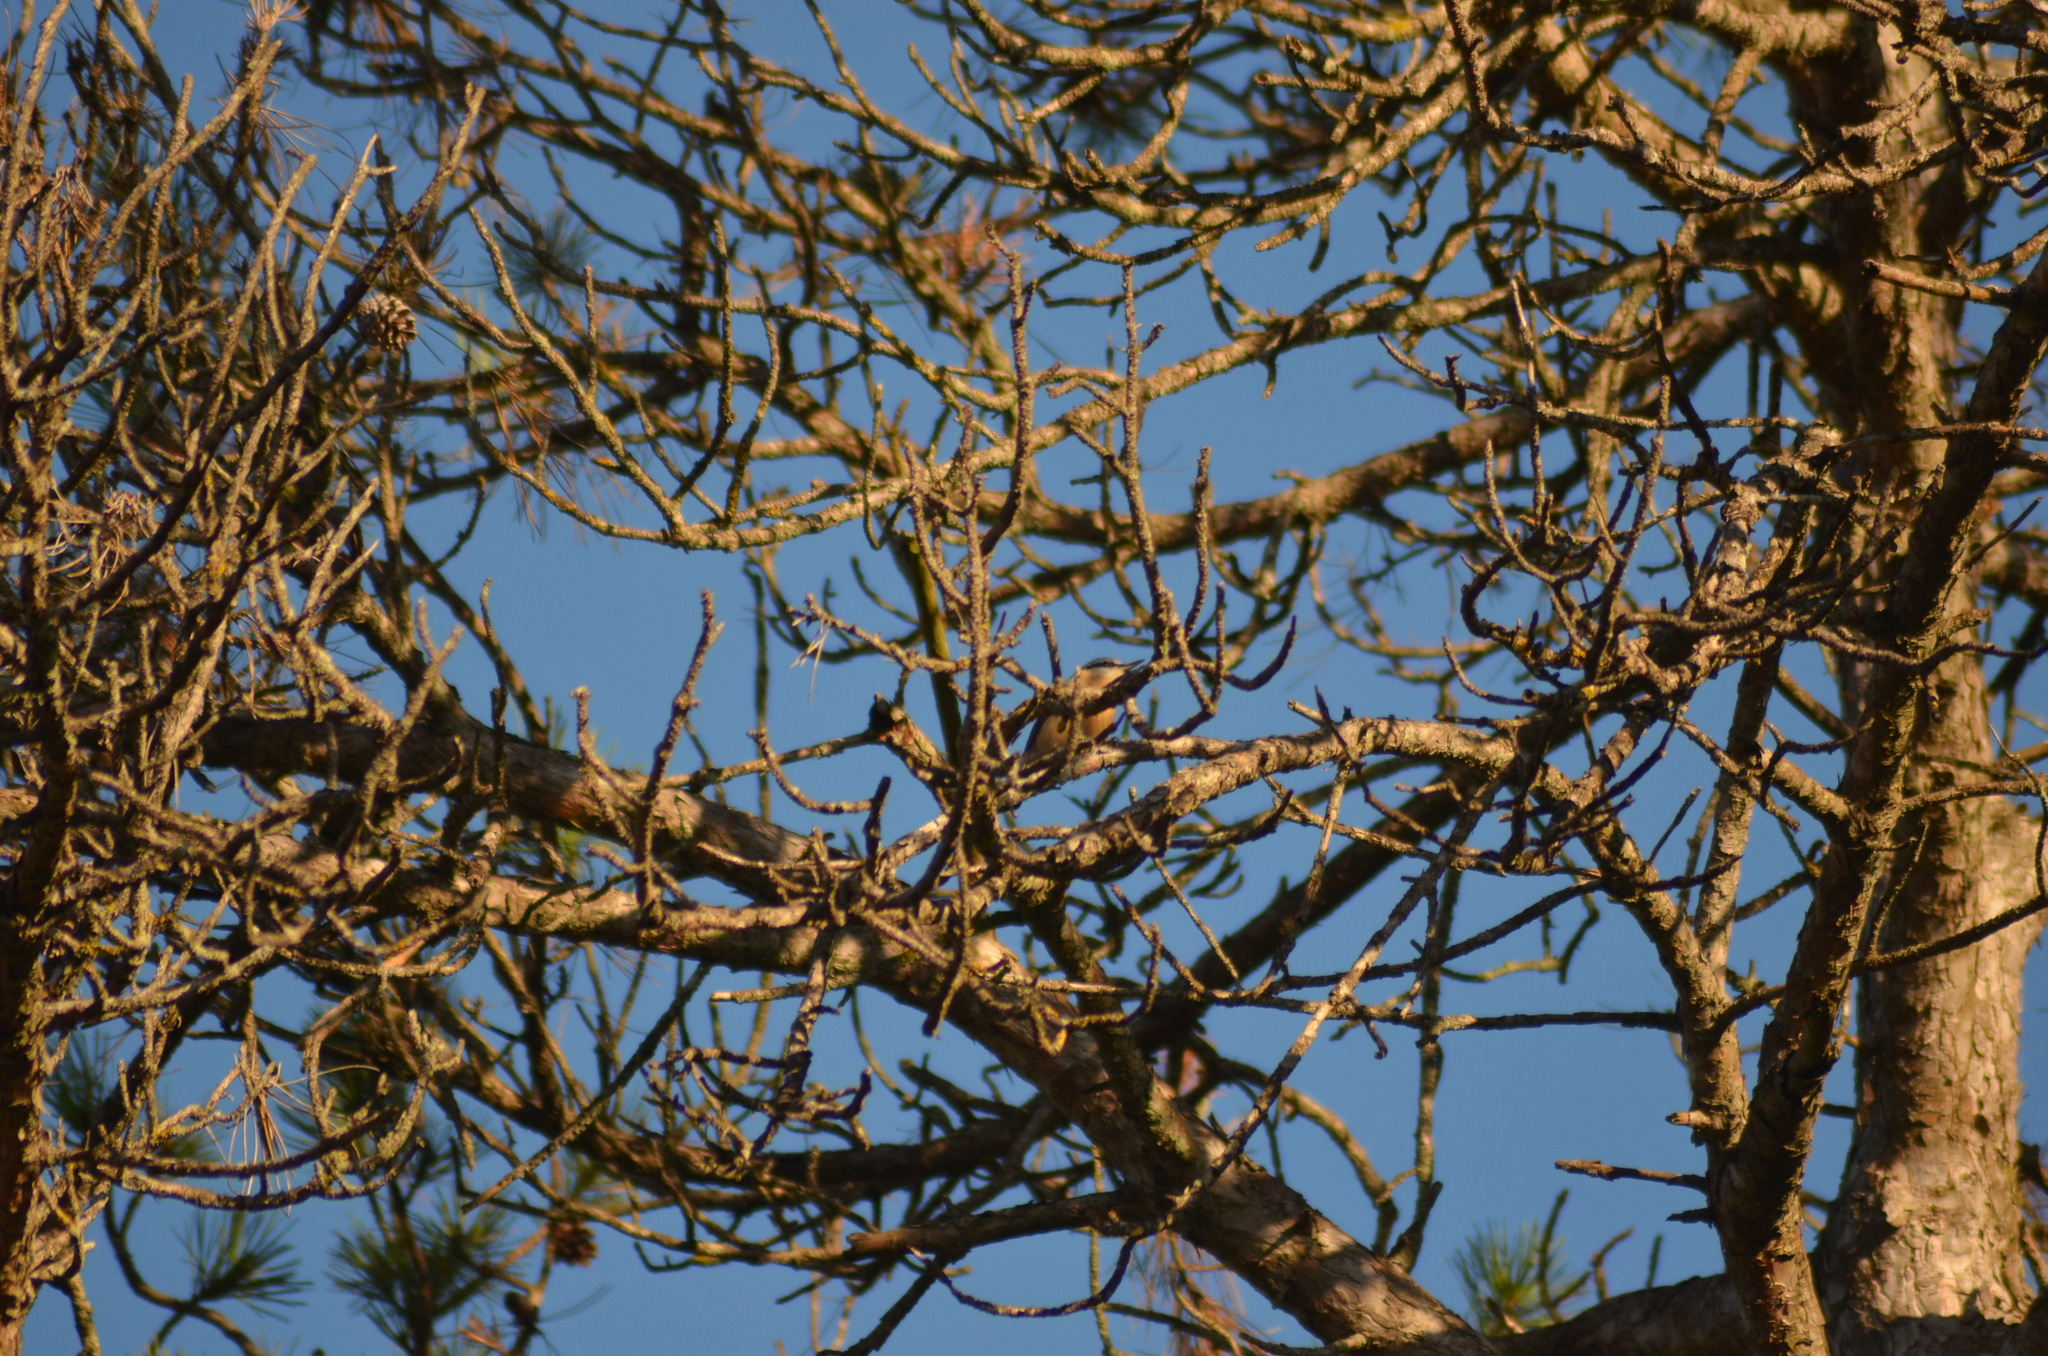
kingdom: Animalia
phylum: Chordata
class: Aves
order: Passeriformes
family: Sittidae
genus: Sitta
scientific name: Sitta europaea
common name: Eurasian nuthatch
